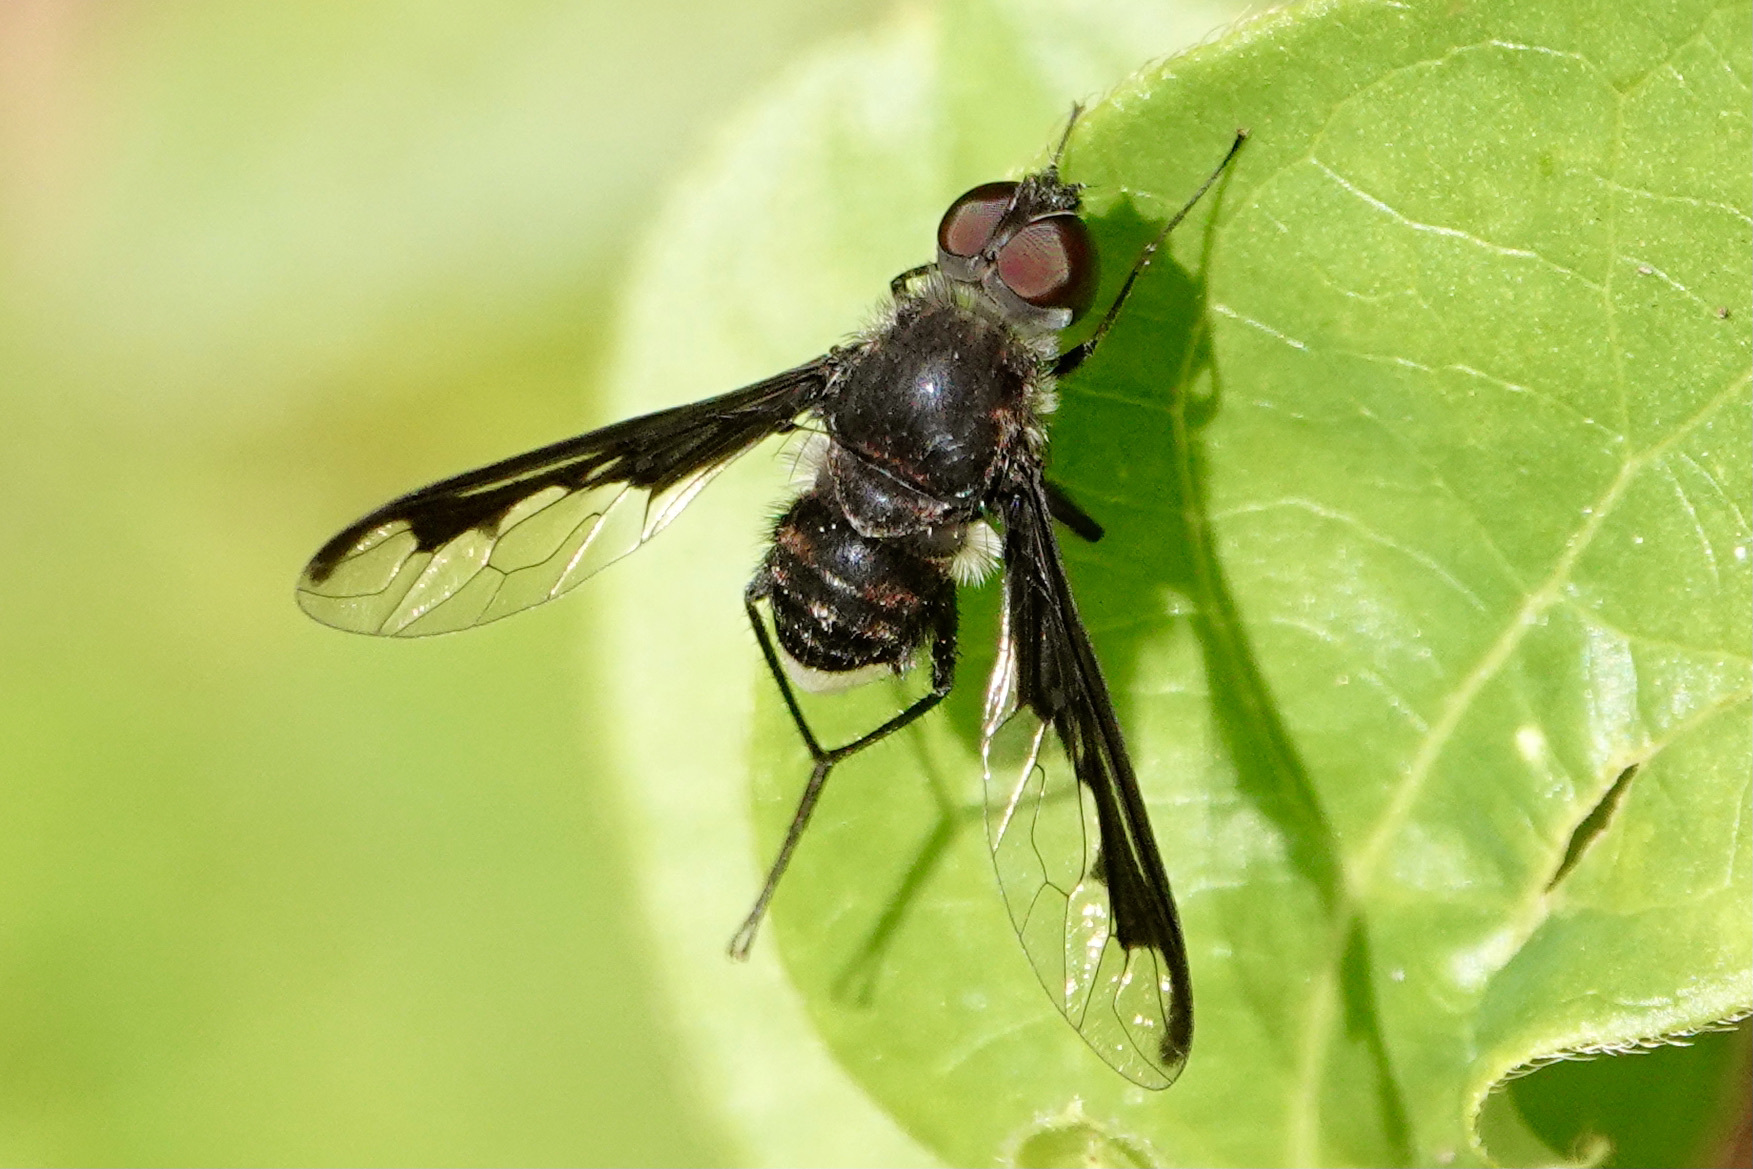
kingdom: Animalia
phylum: Arthropoda
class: Insecta
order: Diptera
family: Bombyliidae
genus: Anthrax
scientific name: Anthrax argyropygus
